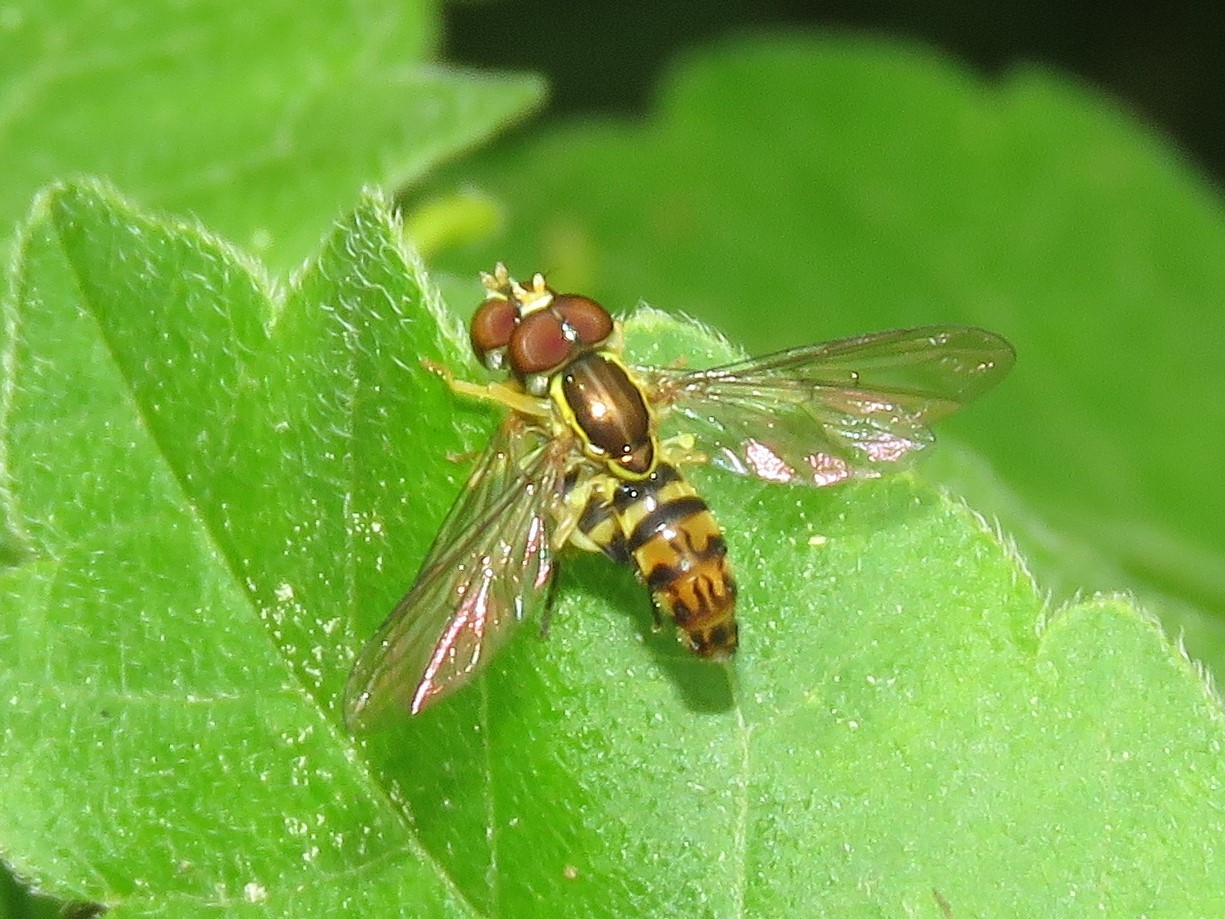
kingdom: Animalia
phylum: Arthropoda
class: Insecta
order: Diptera
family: Syrphidae
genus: Toxomerus
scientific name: Toxomerus geminatus
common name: Eastern calligrapher
